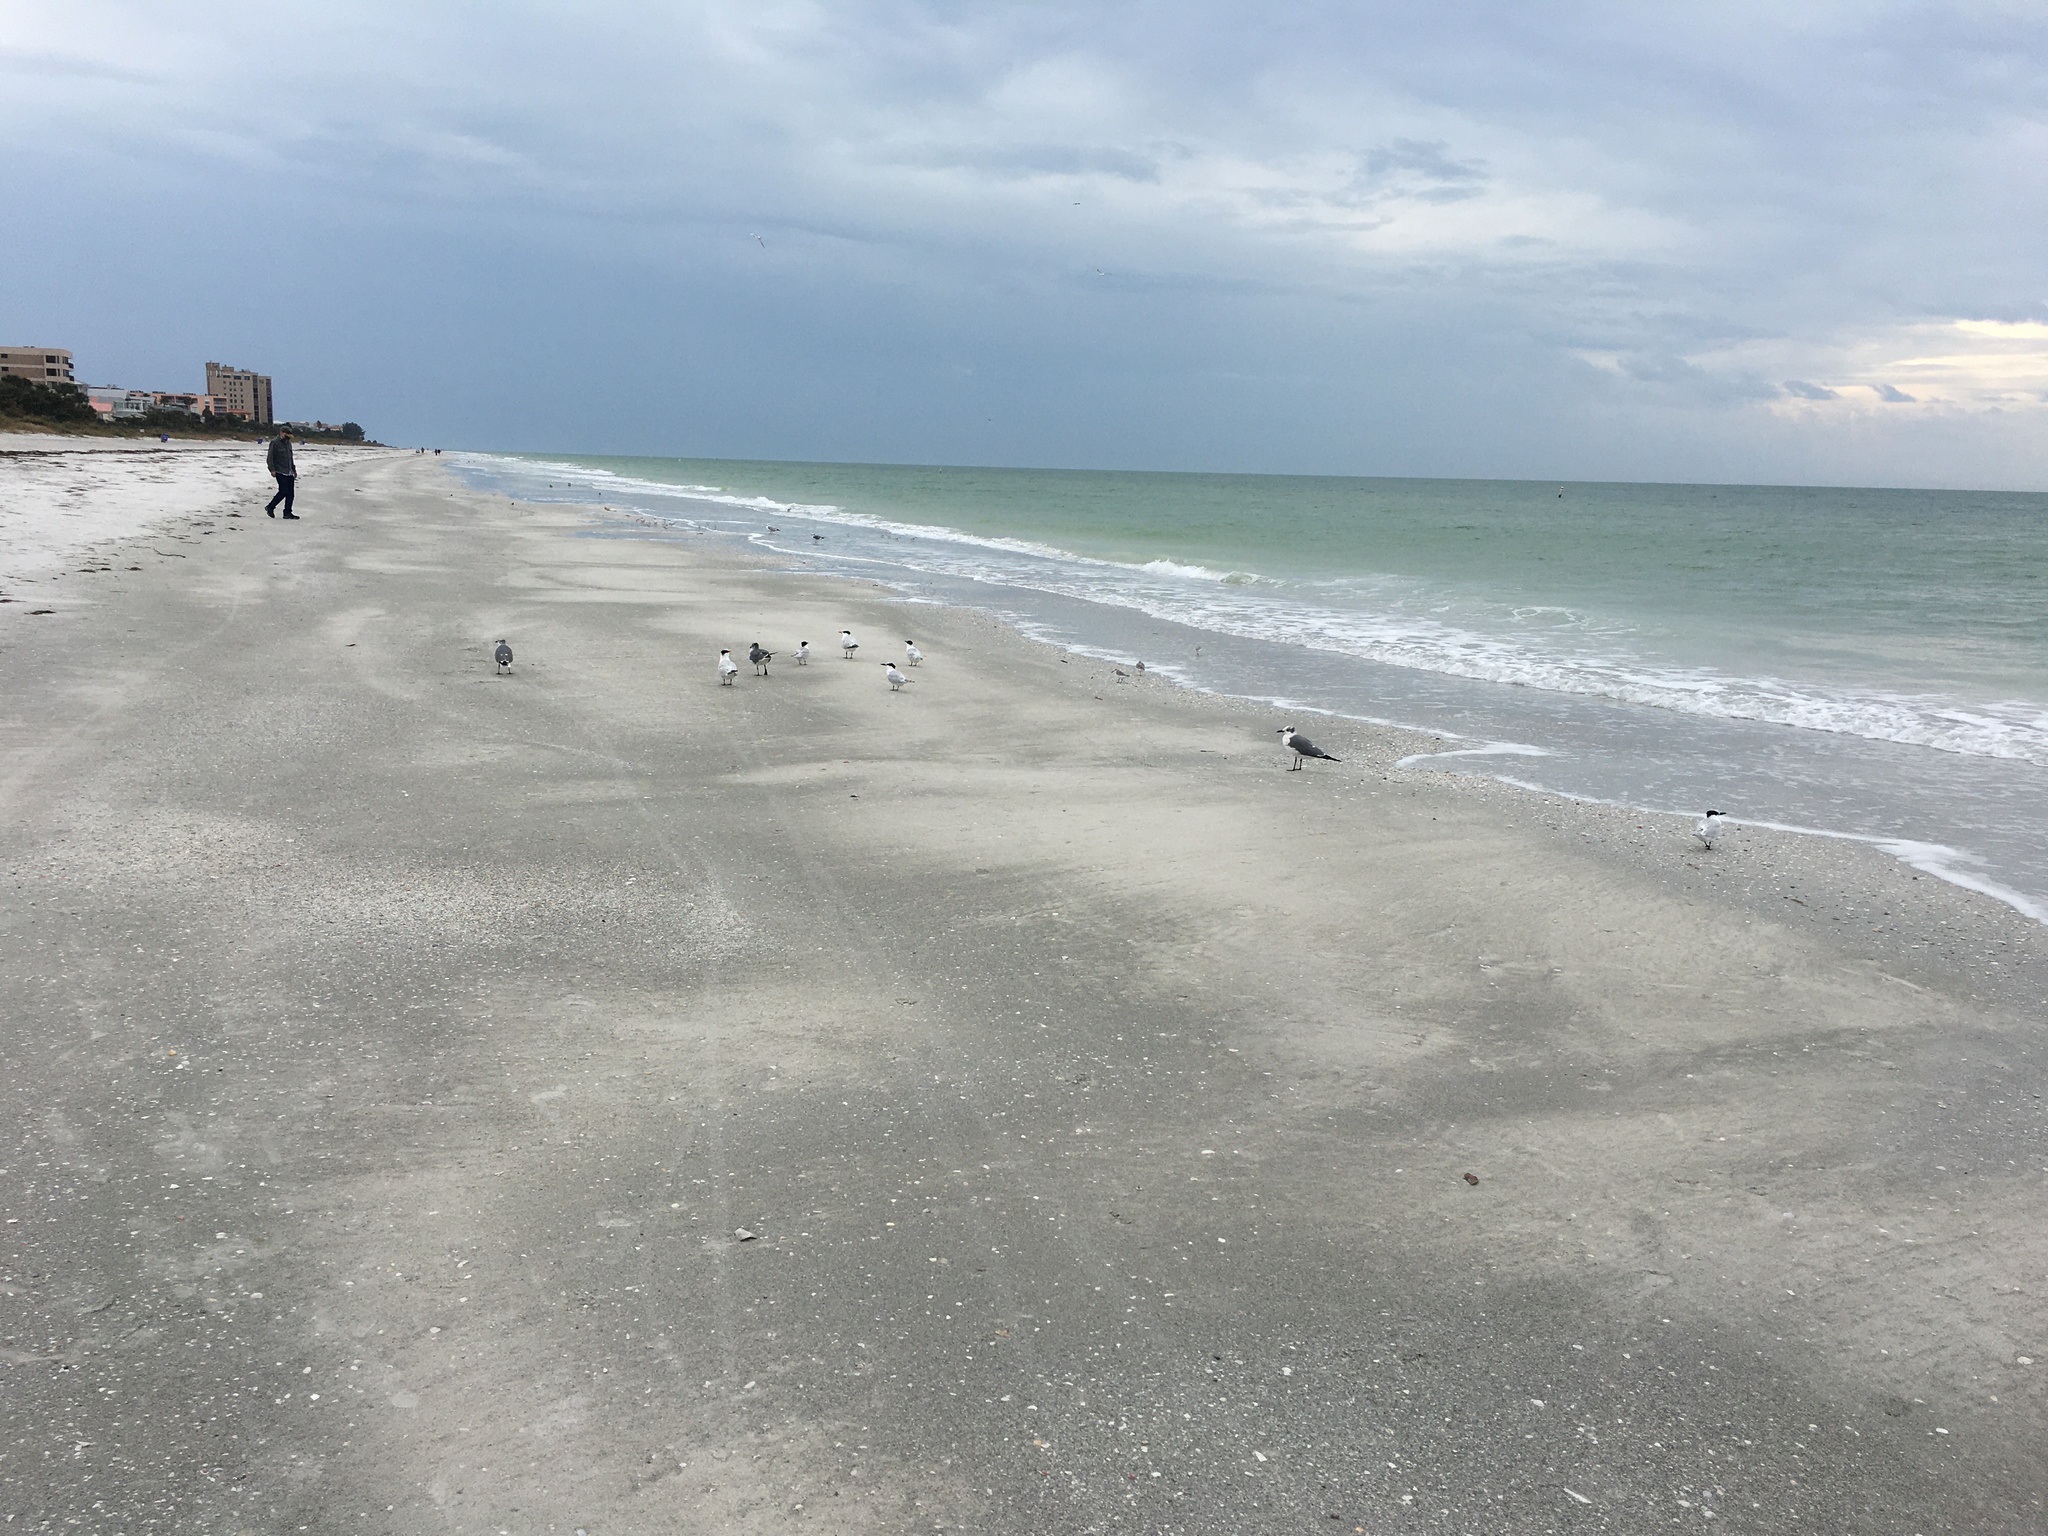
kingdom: Animalia
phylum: Chordata
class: Aves
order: Charadriiformes
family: Laridae
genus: Thalasseus
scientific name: Thalasseus maximus
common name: Royal tern
